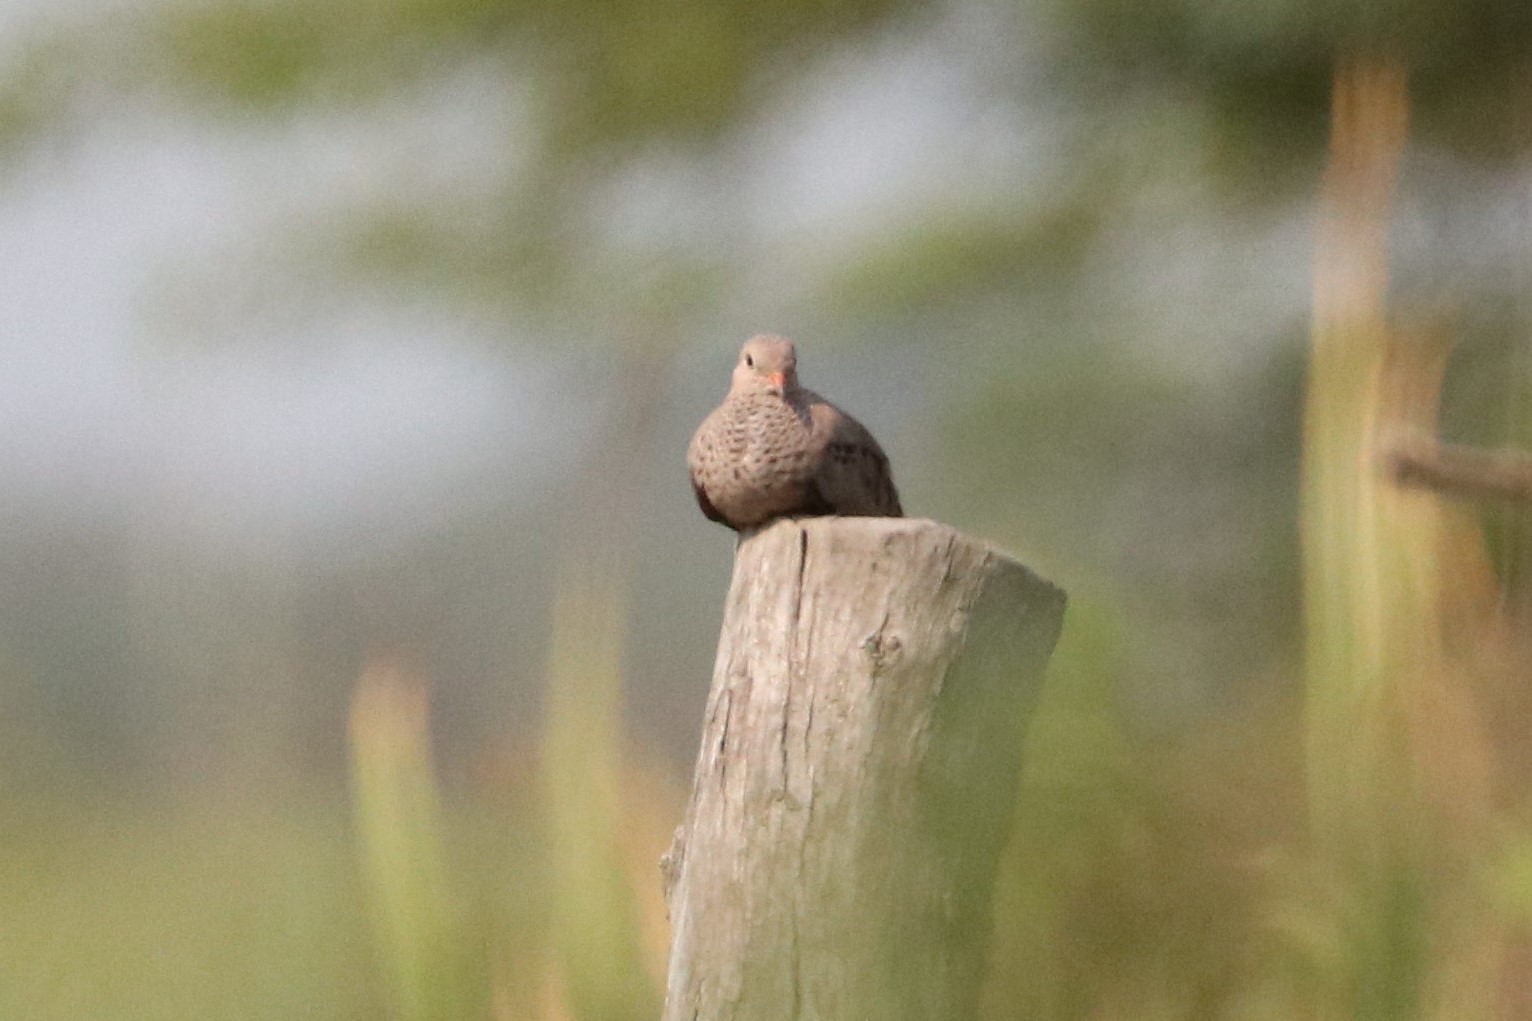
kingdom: Animalia
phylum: Chordata
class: Aves
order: Columbiformes
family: Columbidae
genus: Columbina
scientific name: Columbina passerina
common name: Common ground-dove
